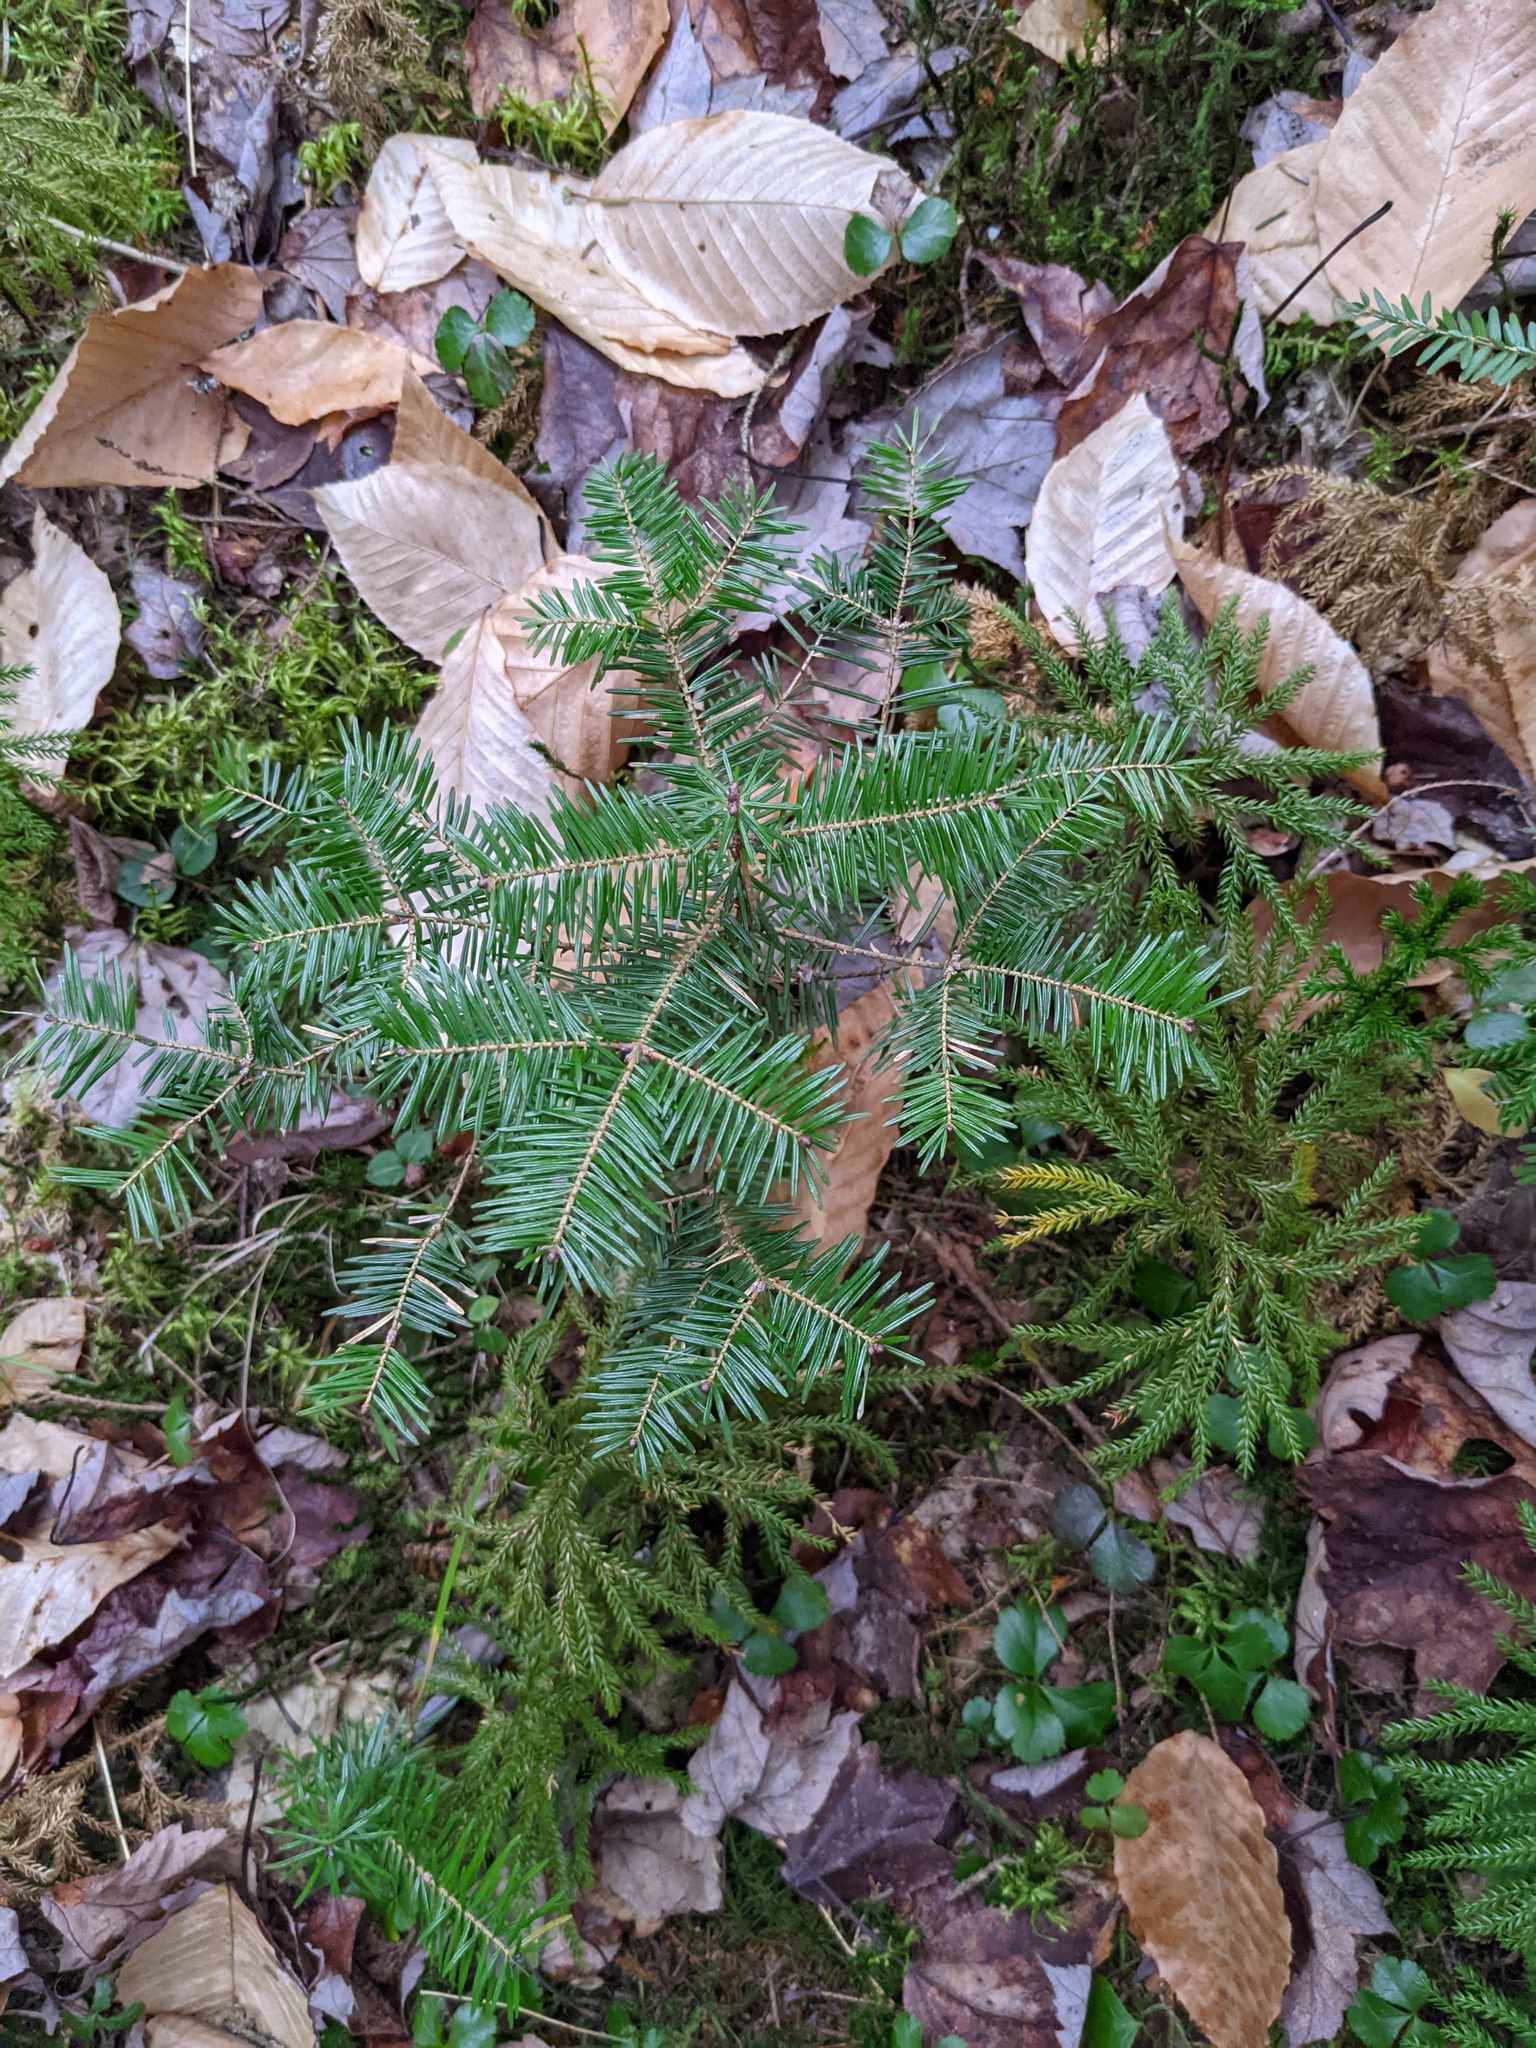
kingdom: Plantae
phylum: Tracheophyta
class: Pinopsida
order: Pinales
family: Pinaceae
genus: Abies
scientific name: Abies balsamea
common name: Balsam fir
